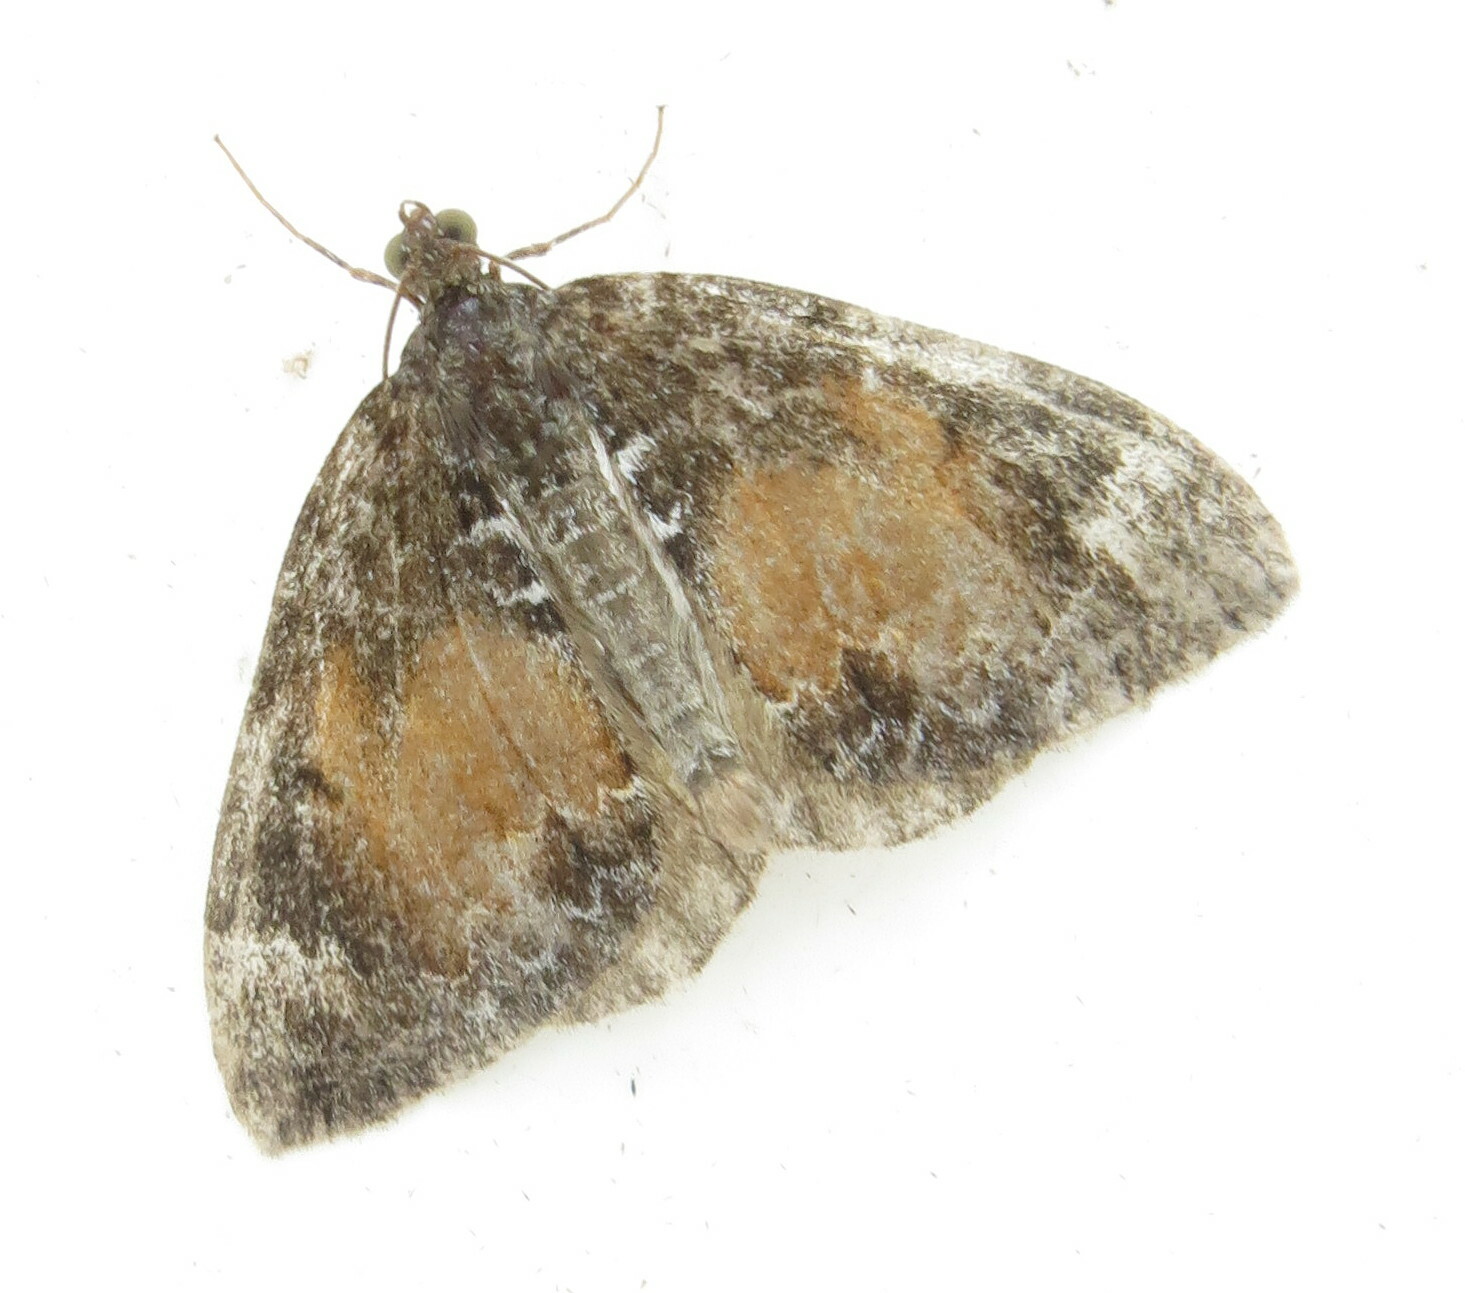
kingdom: Animalia
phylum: Arthropoda
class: Insecta
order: Lepidoptera
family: Geometridae
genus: Dysstroma
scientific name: Dysstroma truncata
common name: Common marbled carpet
